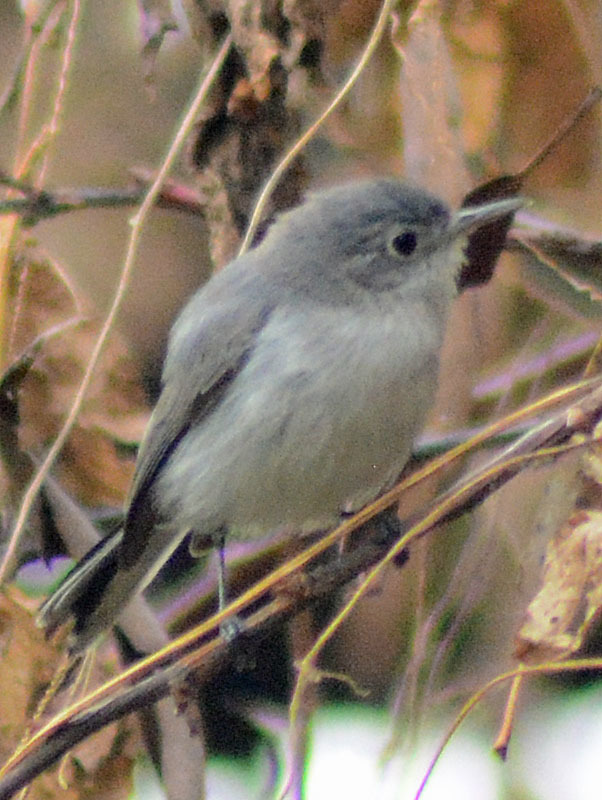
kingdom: Animalia
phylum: Chordata
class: Aves
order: Passeriformes
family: Polioptilidae
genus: Polioptila
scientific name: Polioptila caerulea
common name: Blue-gray gnatcatcher
